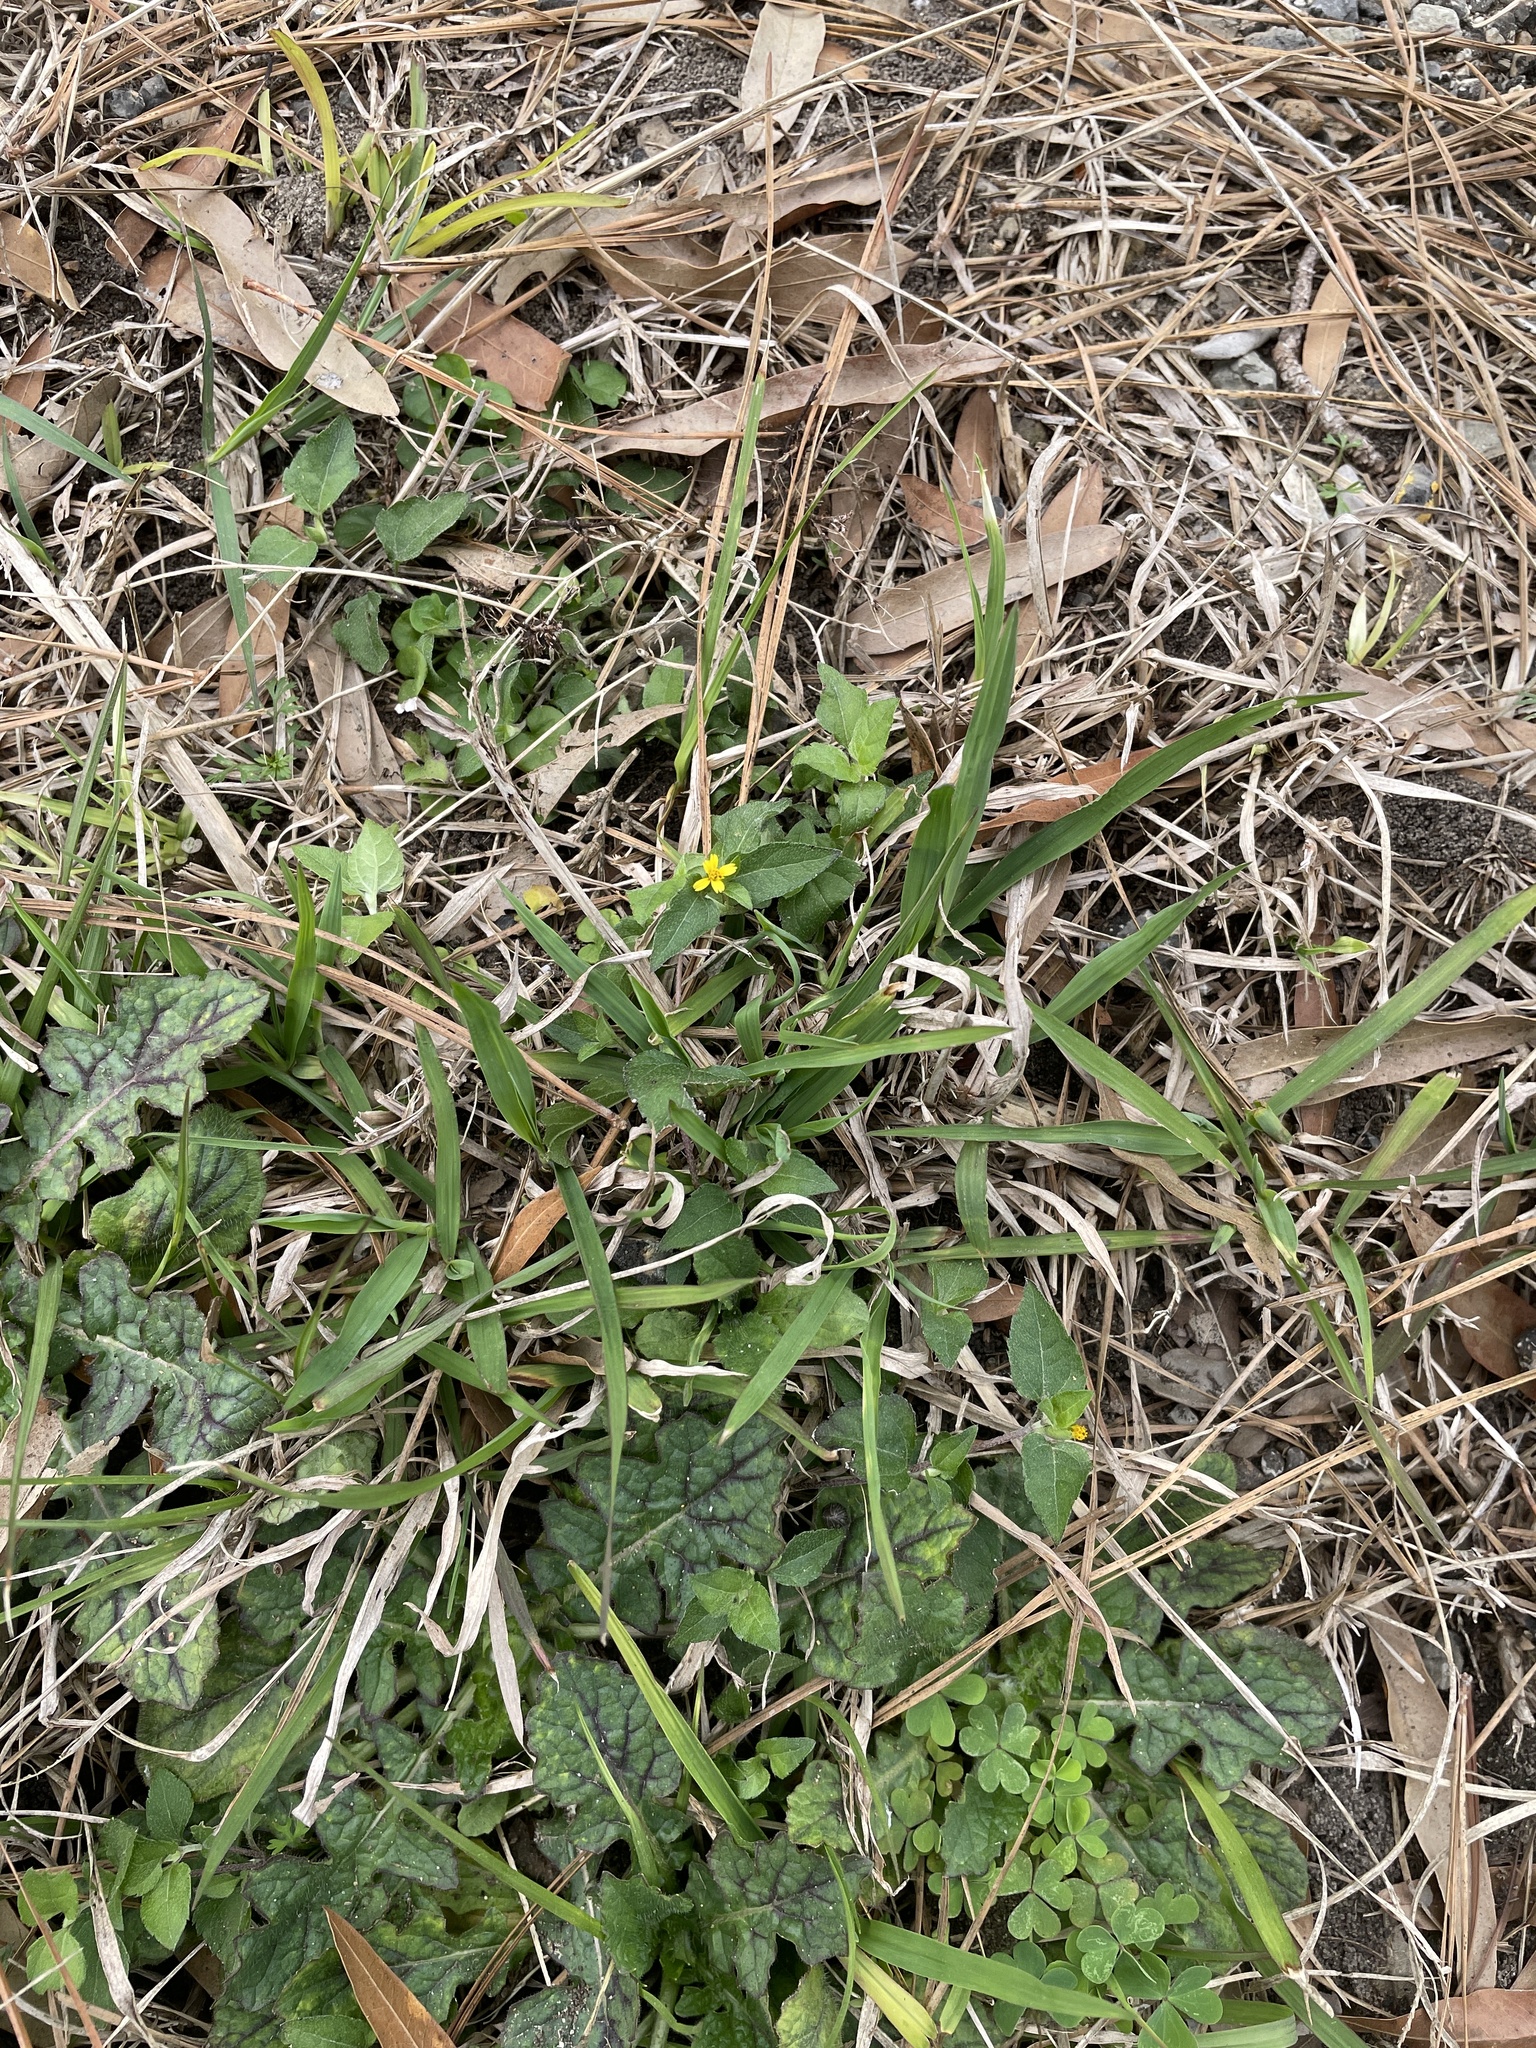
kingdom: Plantae
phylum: Tracheophyta
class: Magnoliopsida
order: Asterales
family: Asteraceae
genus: Calyptocarpus
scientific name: Calyptocarpus vialis
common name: Straggler daisy
